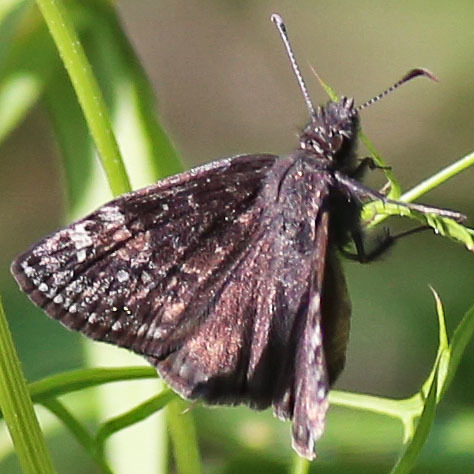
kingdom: Animalia
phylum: Arthropoda
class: Insecta
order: Lepidoptera
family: Hesperiidae
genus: Erynnis
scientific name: Erynnis baptisiae
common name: Wild indigo duskywing
